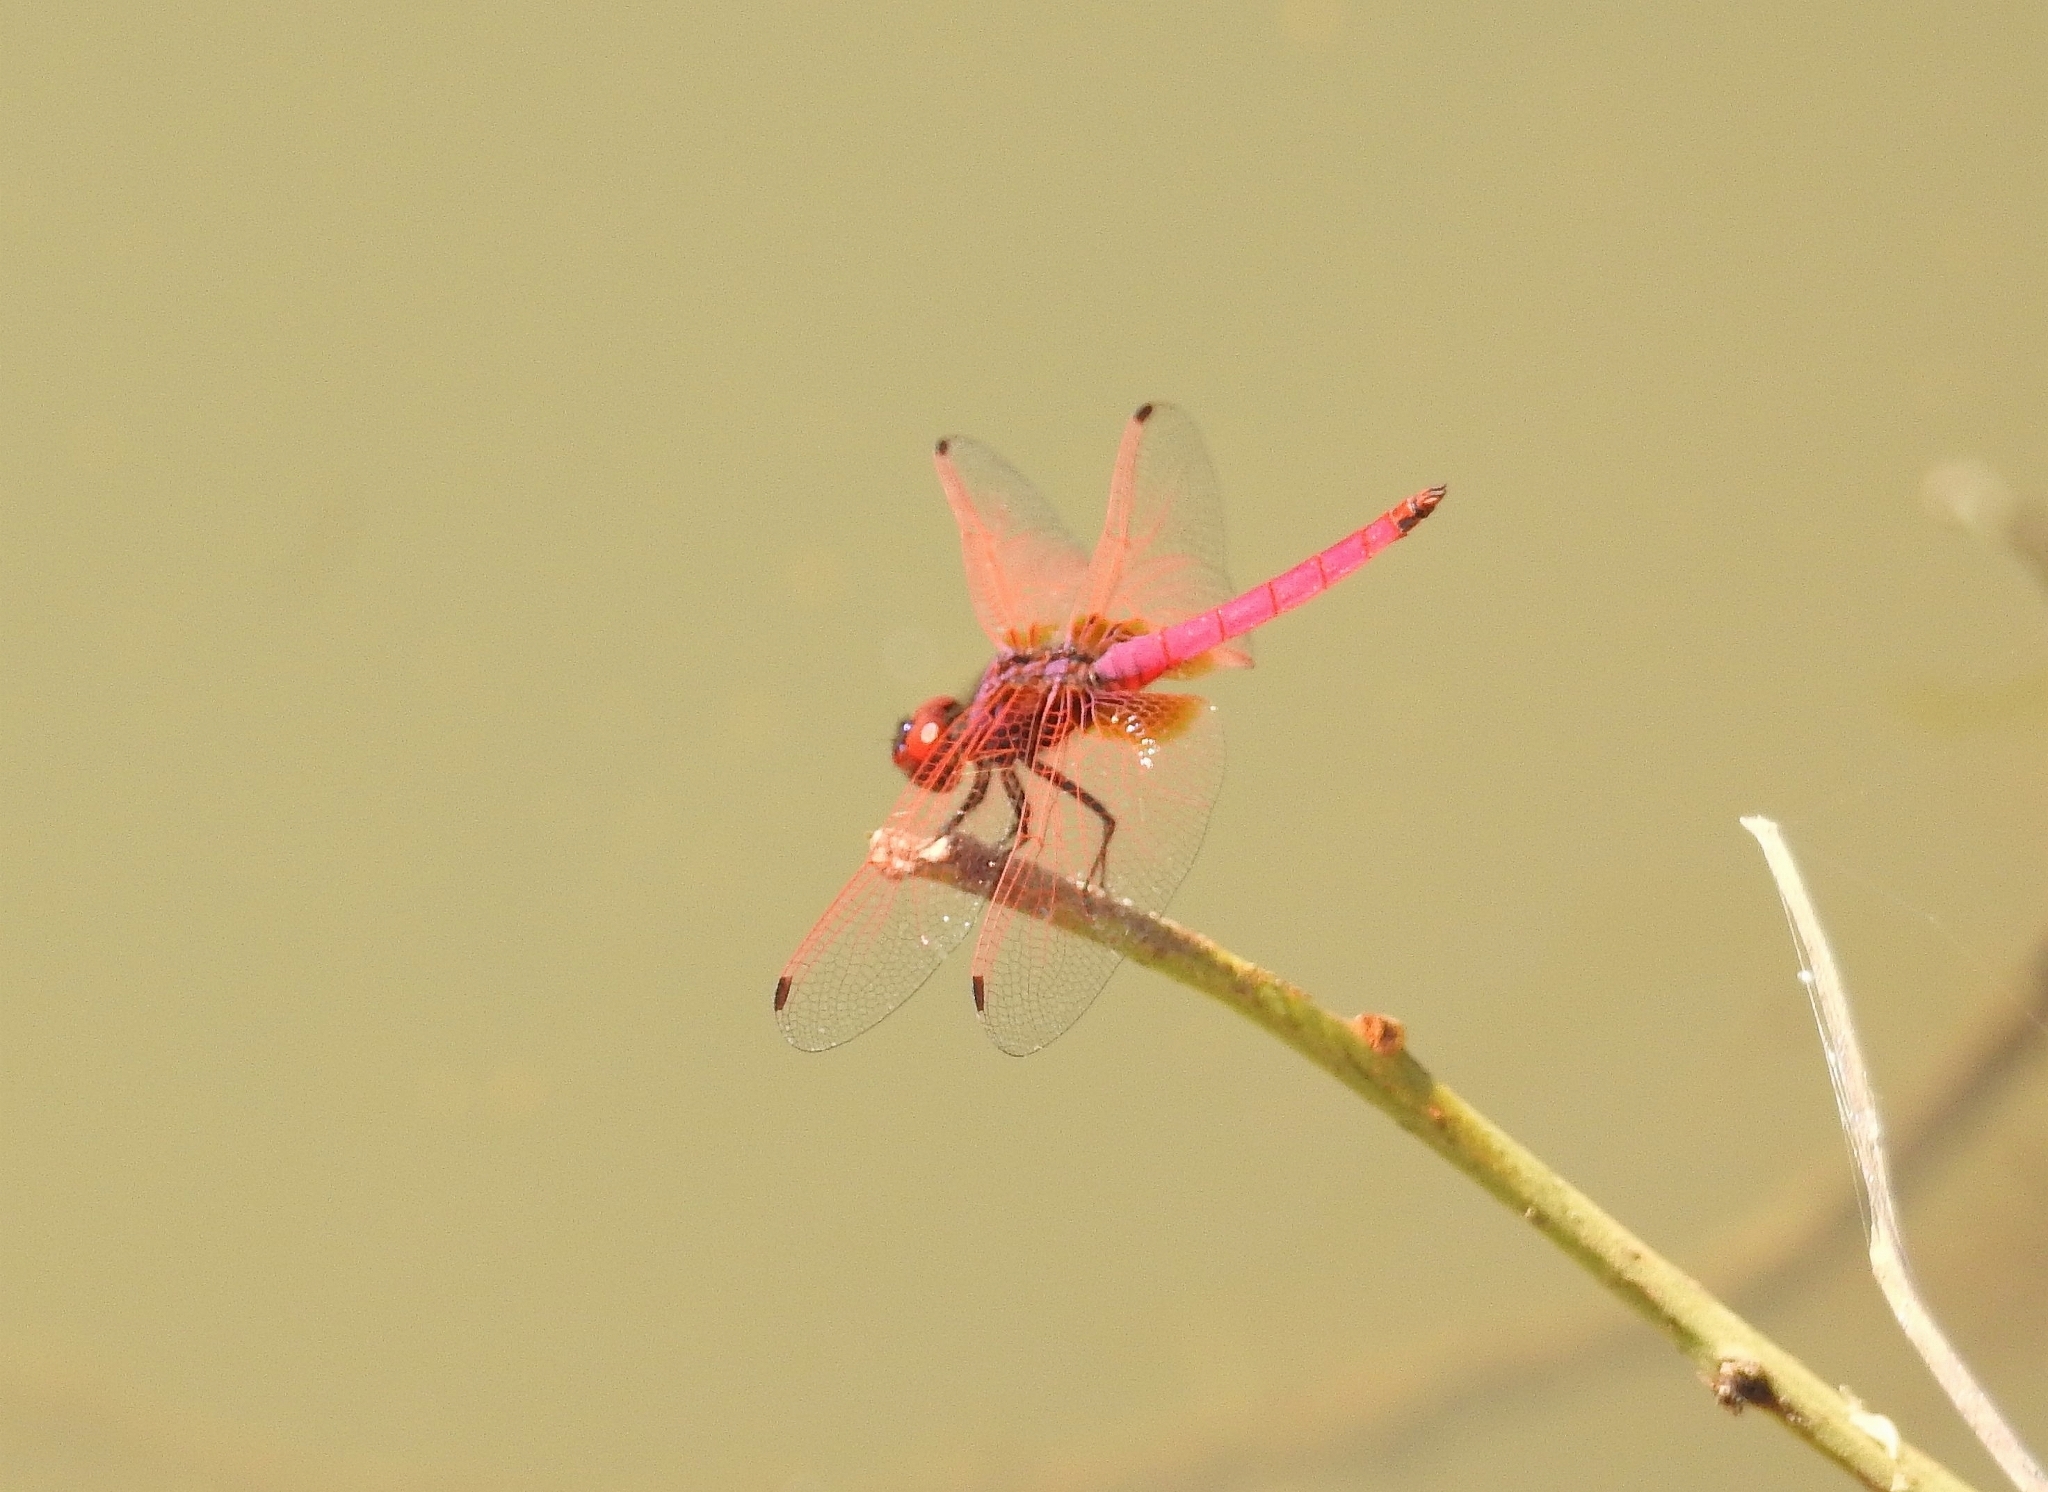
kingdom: Animalia
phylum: Arthropoda
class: Insecta
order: Odonata
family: Libellulidae
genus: Trithemis
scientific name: Trithemis aurora
